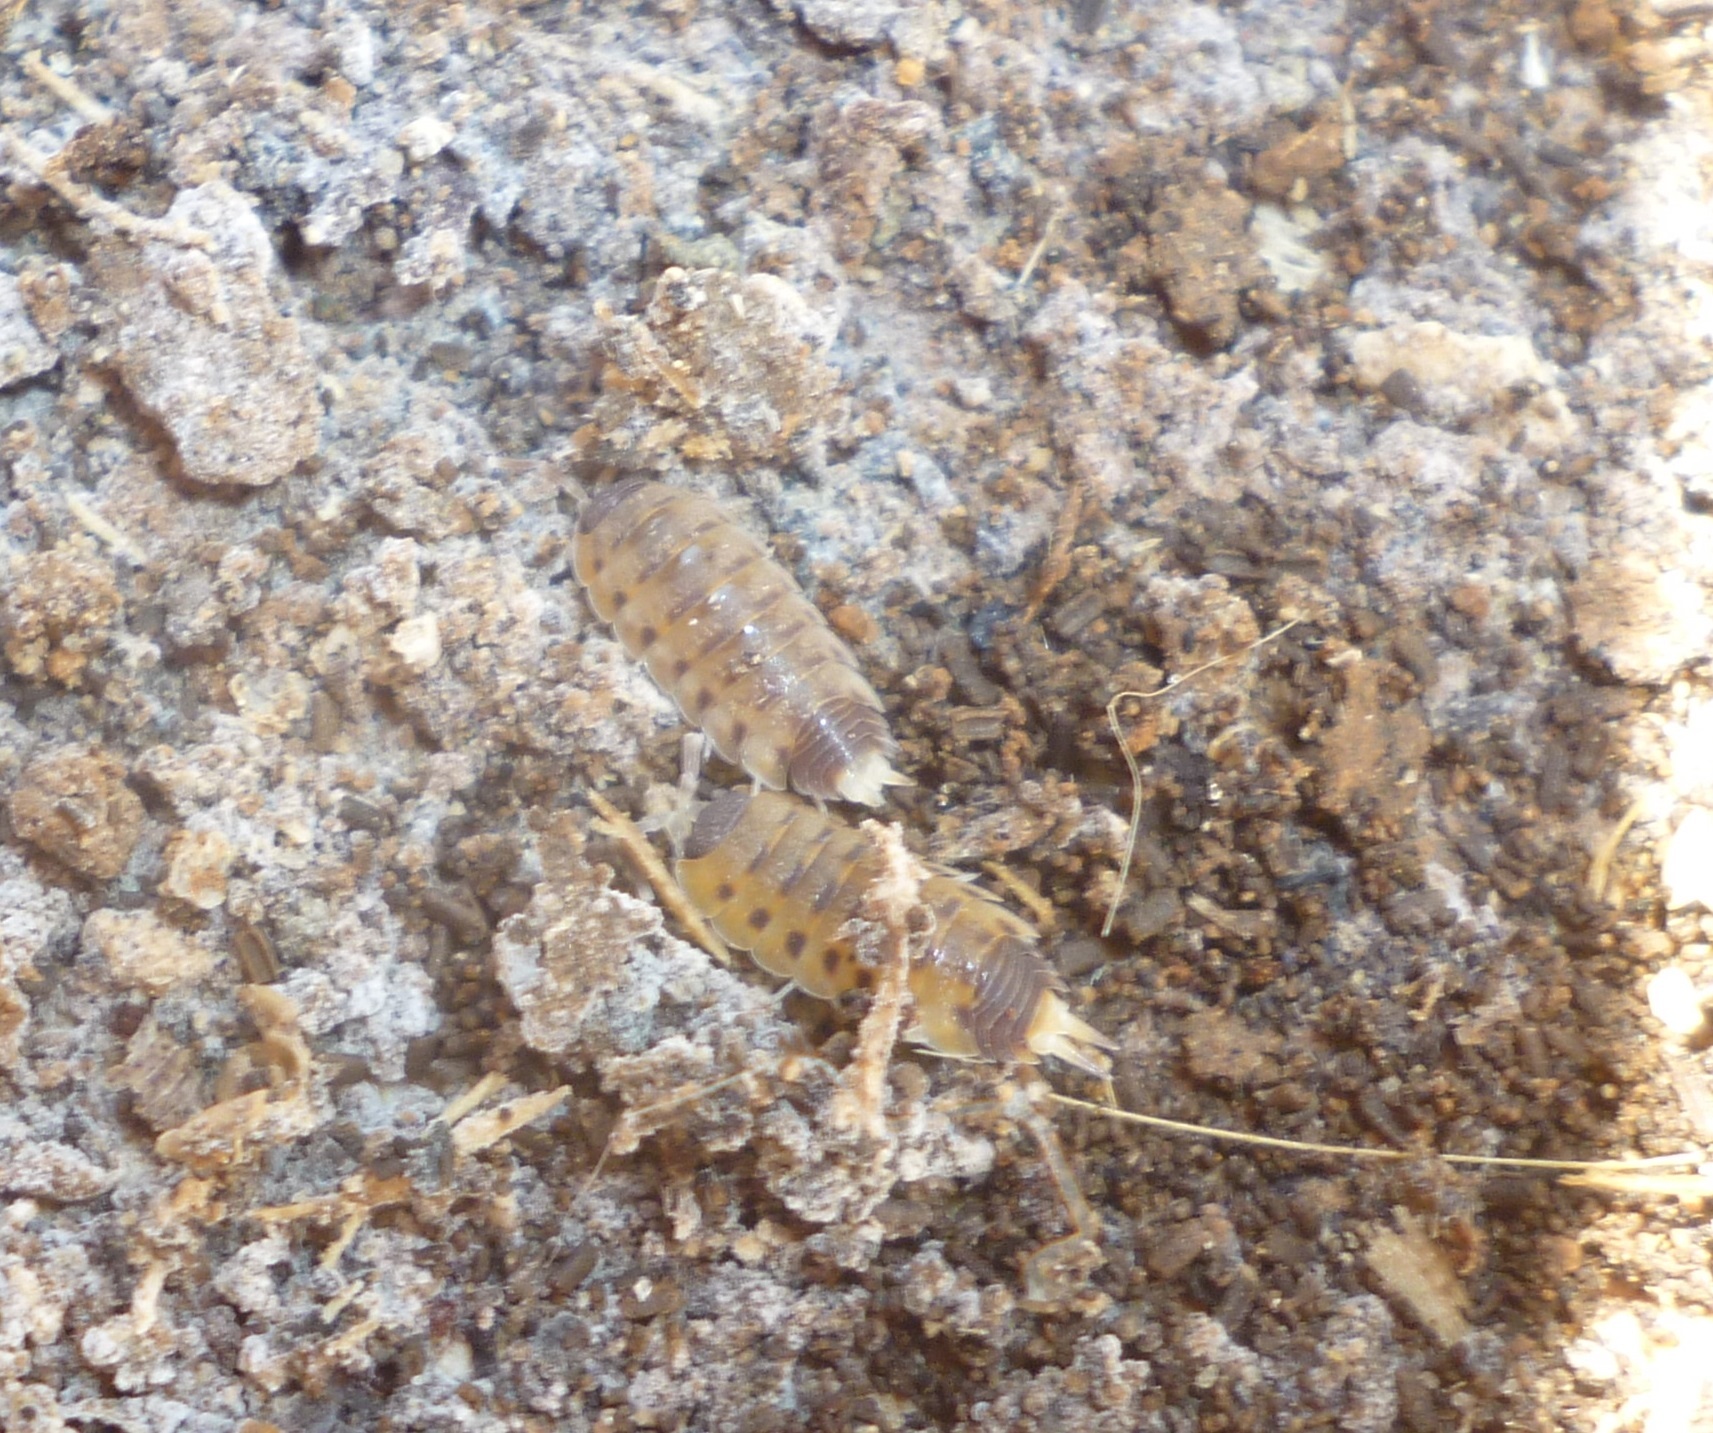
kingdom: Animalia
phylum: Arthropoda
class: Malacostraca
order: Isopoda
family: Porcellionidae
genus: Proporcellio
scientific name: Proporcellio vulcanius
